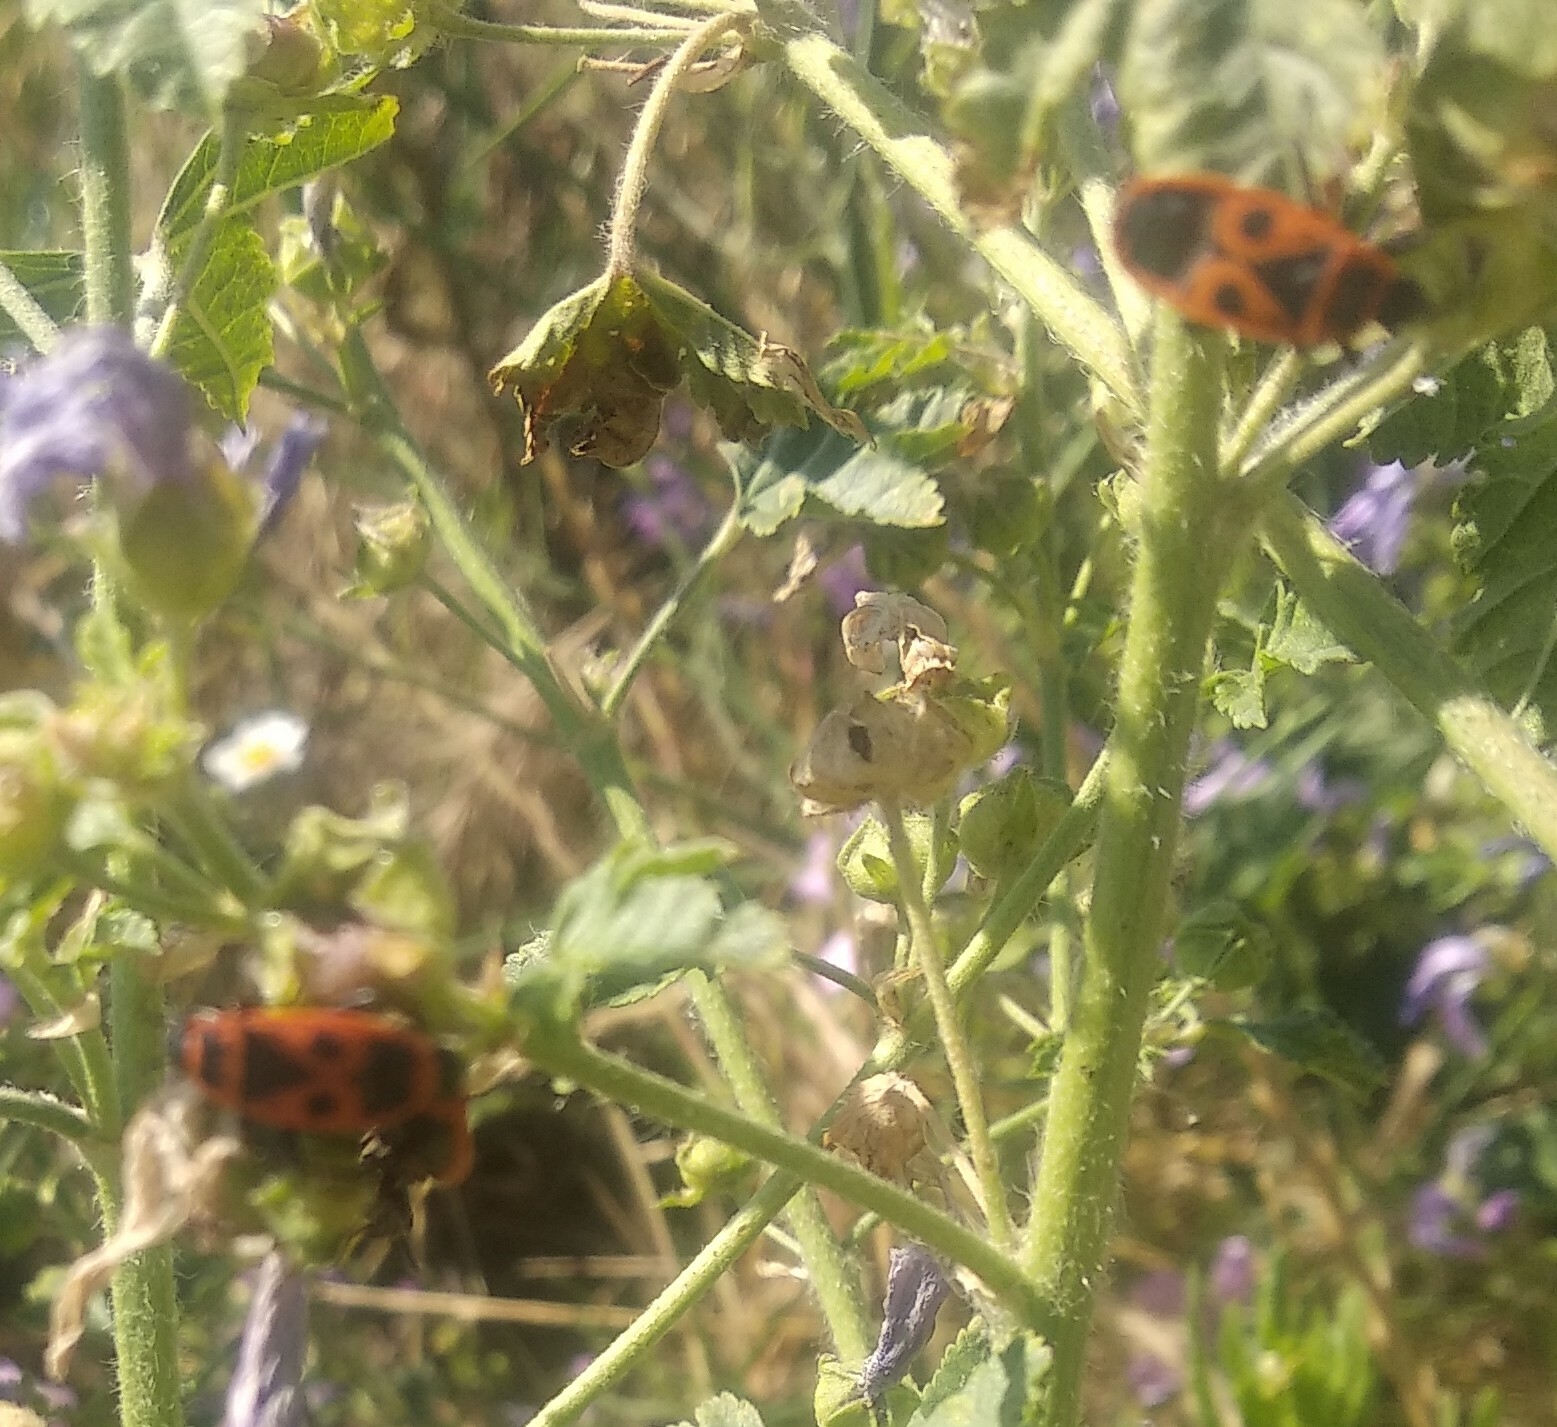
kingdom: Animalia
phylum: Arthropoda
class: Insecta
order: Hemiptera
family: Pyrrhocoridae
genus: Pyrrhocoris
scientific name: Pyrrhocoris apterus
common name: Firebug
